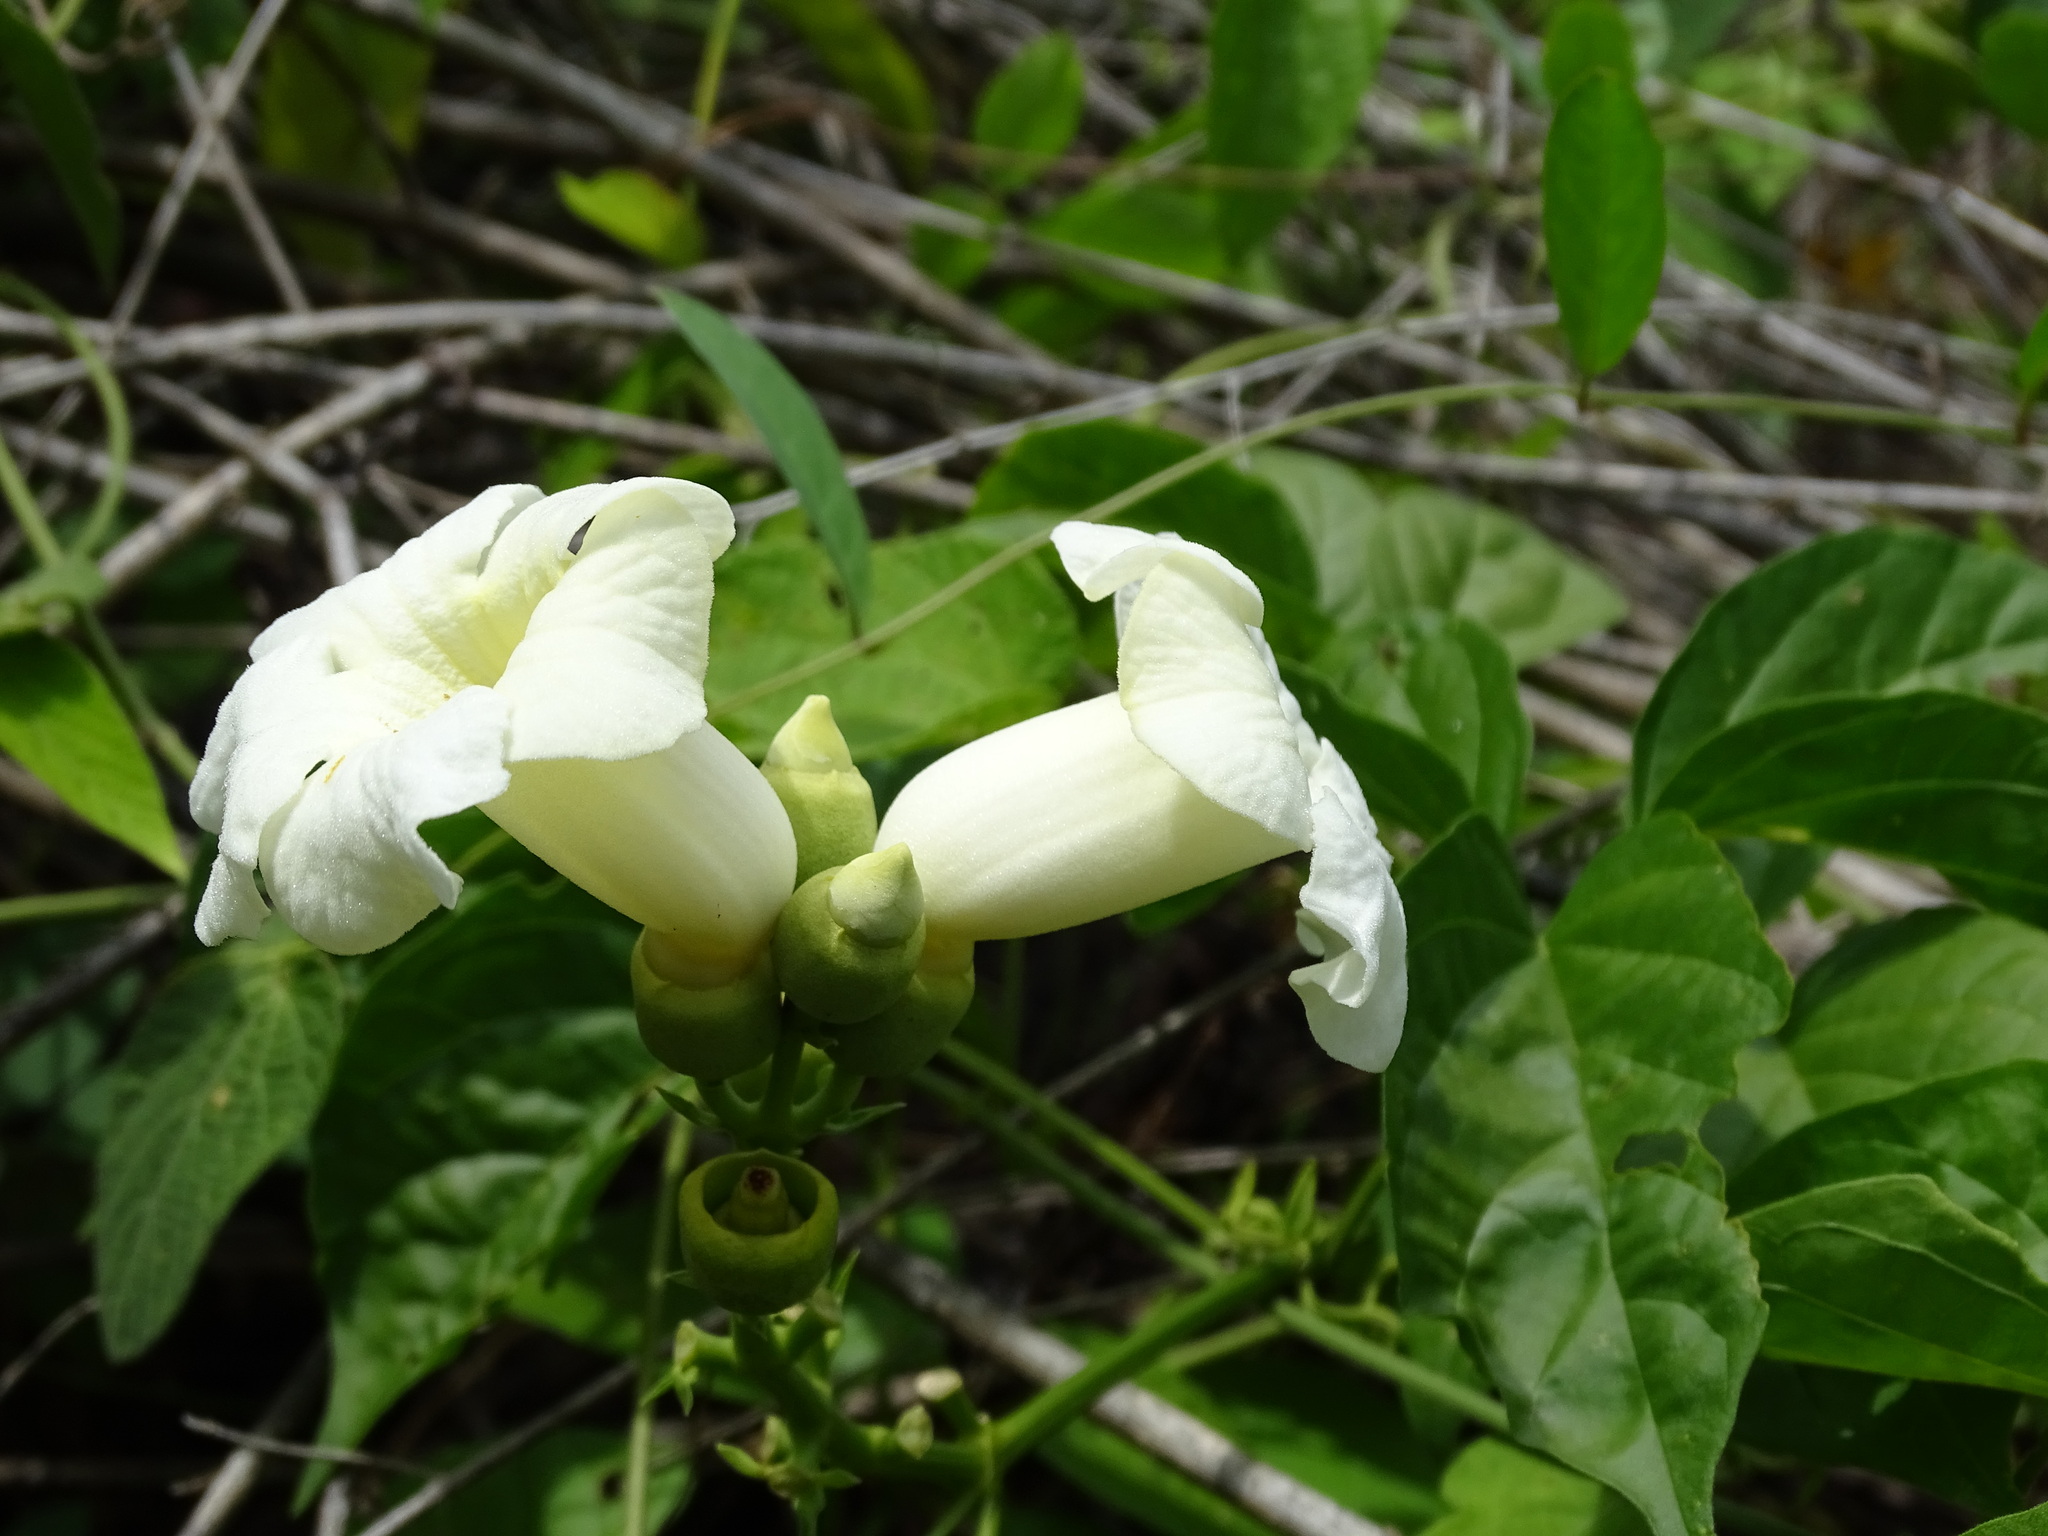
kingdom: Plantae
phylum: Tracheophyta
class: Magnoliopsida
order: Lamiales
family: Bignoniaceae
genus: Amphilophium
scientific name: Amphilophium crucigerum
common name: Monkey comb
